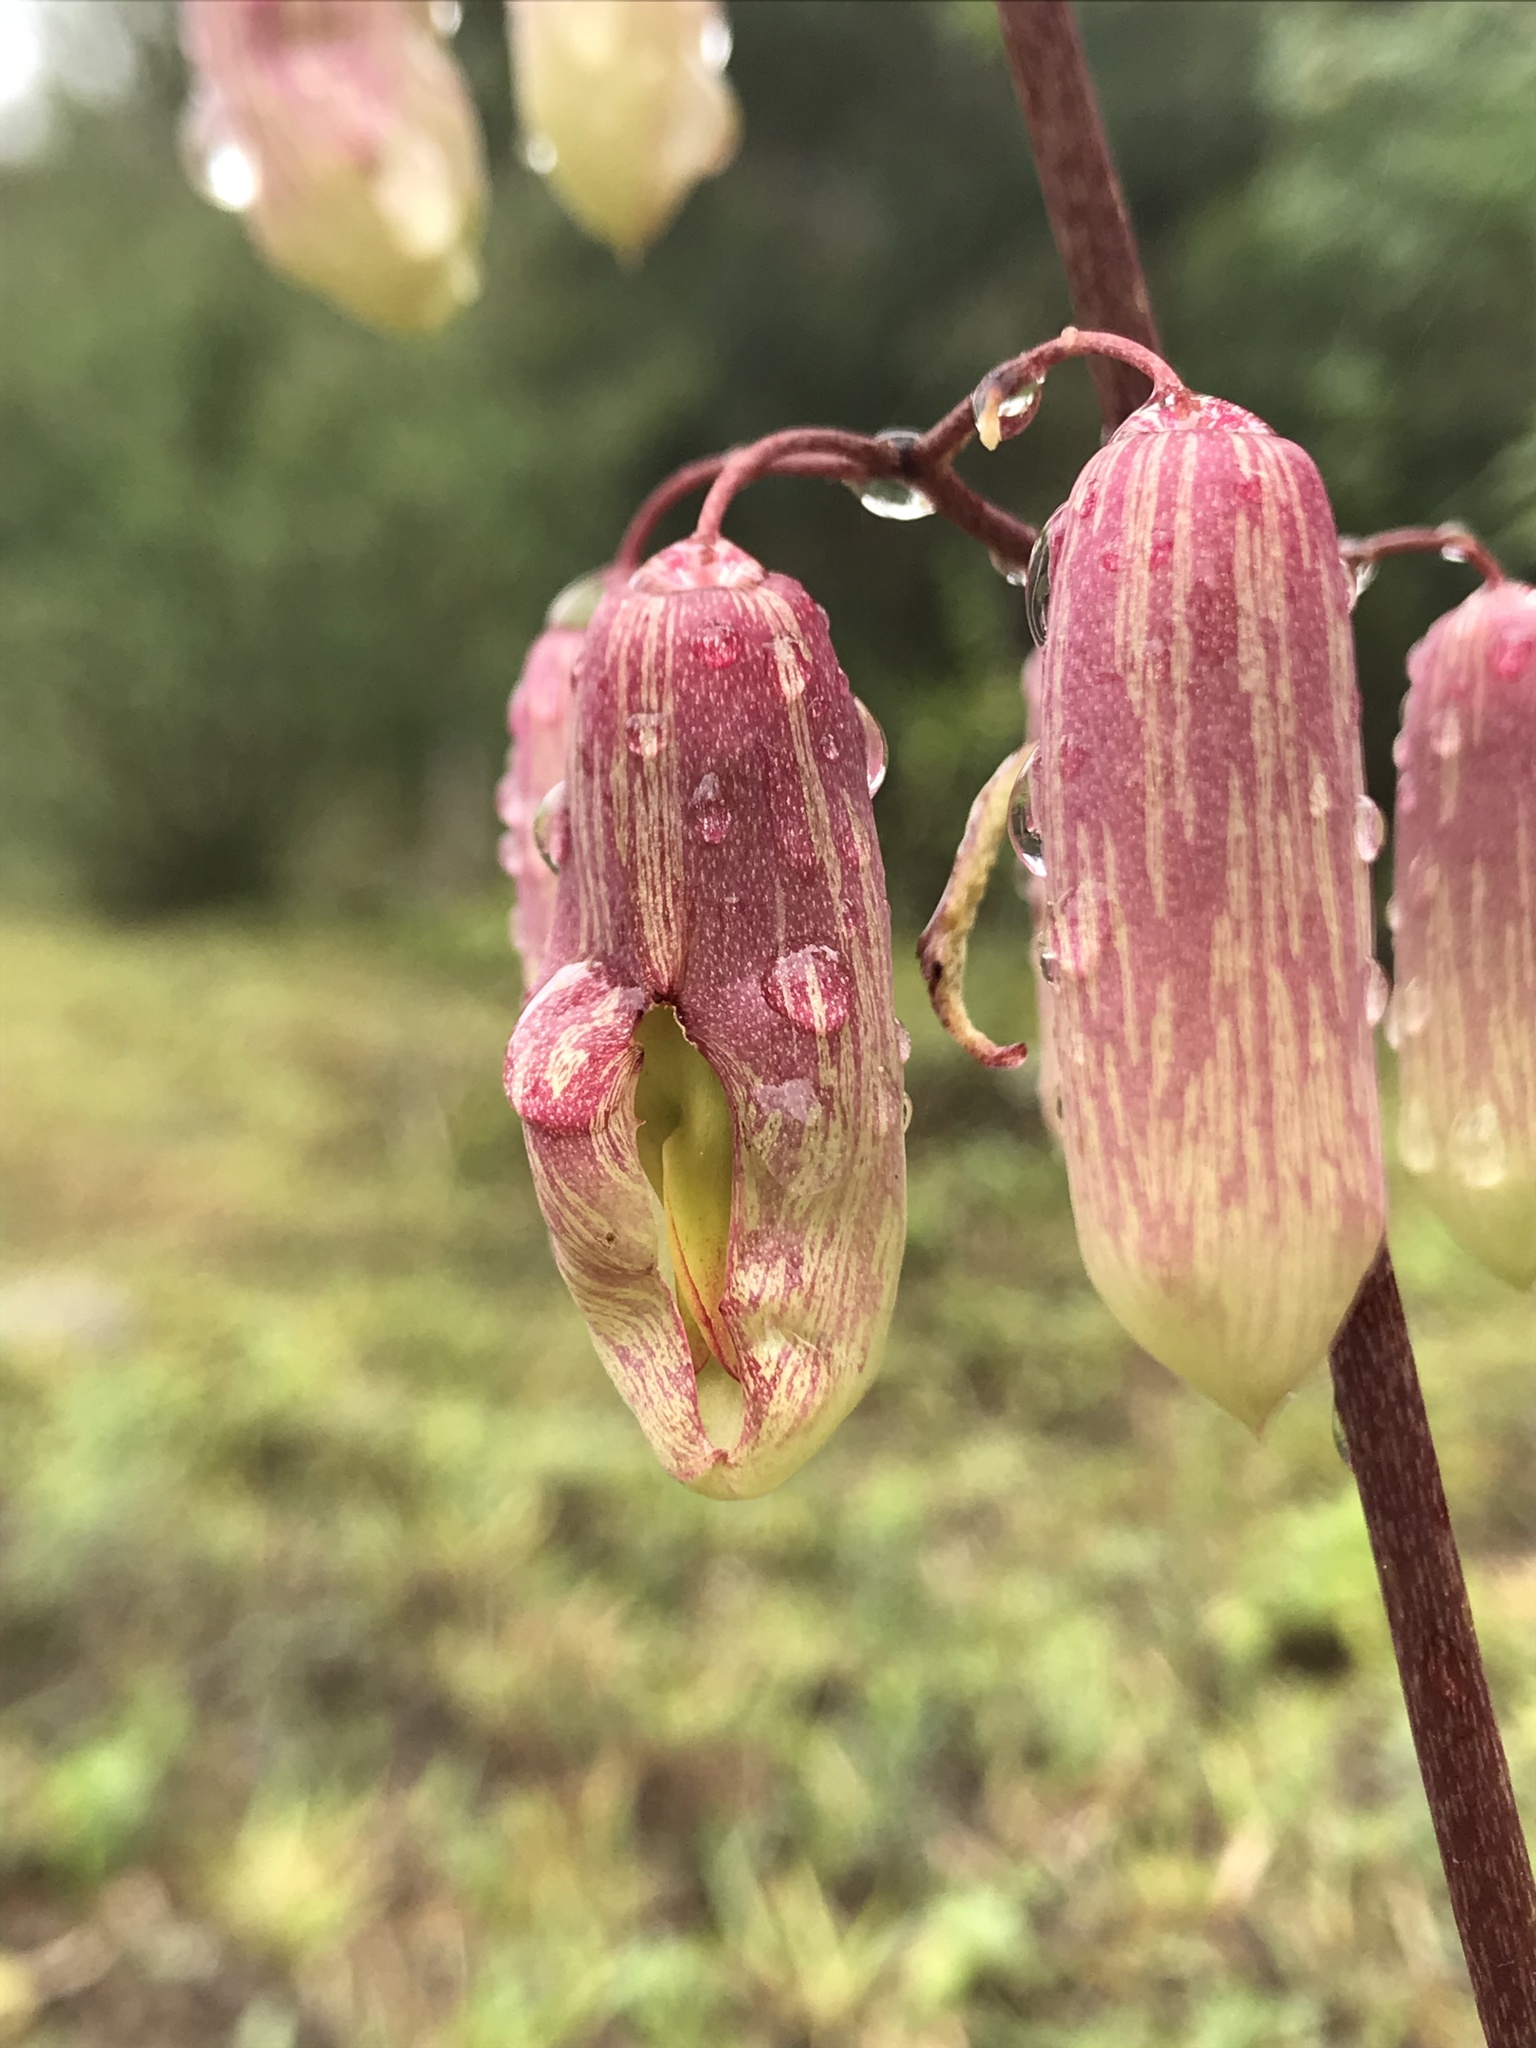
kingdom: Plantae
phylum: Tracheophyta
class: Magnoliopsida
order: Saxifragales
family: Crassulaceae
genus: Kalanchoe
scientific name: Kalanchoe pinnata
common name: Cathedral bells
